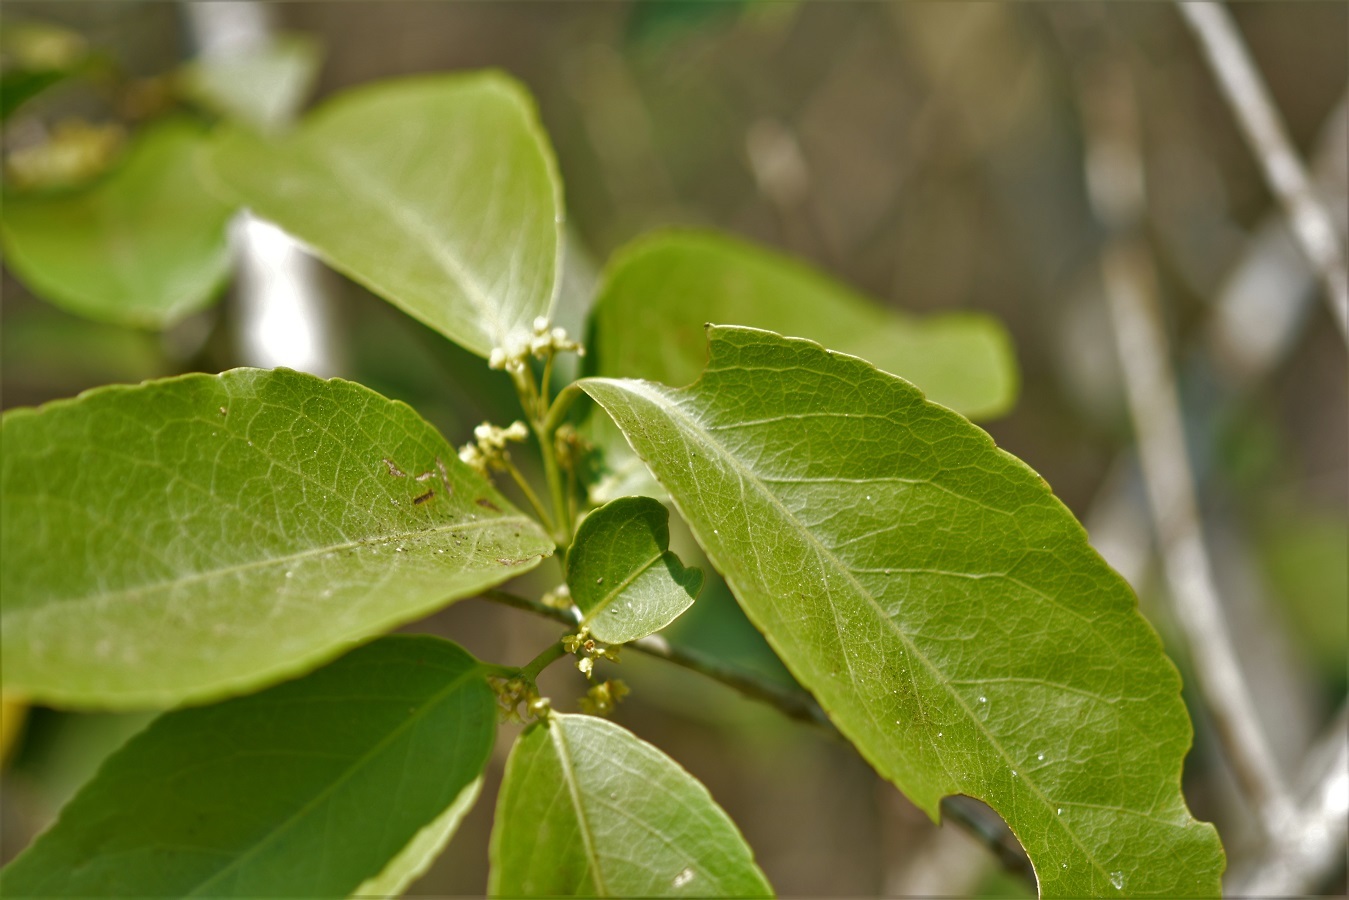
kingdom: Plantae
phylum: Tracheophyta
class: Magnoliopsida
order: Celastrales
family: Celastraceae
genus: Monteverdia
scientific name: Monteverdia stipitata
